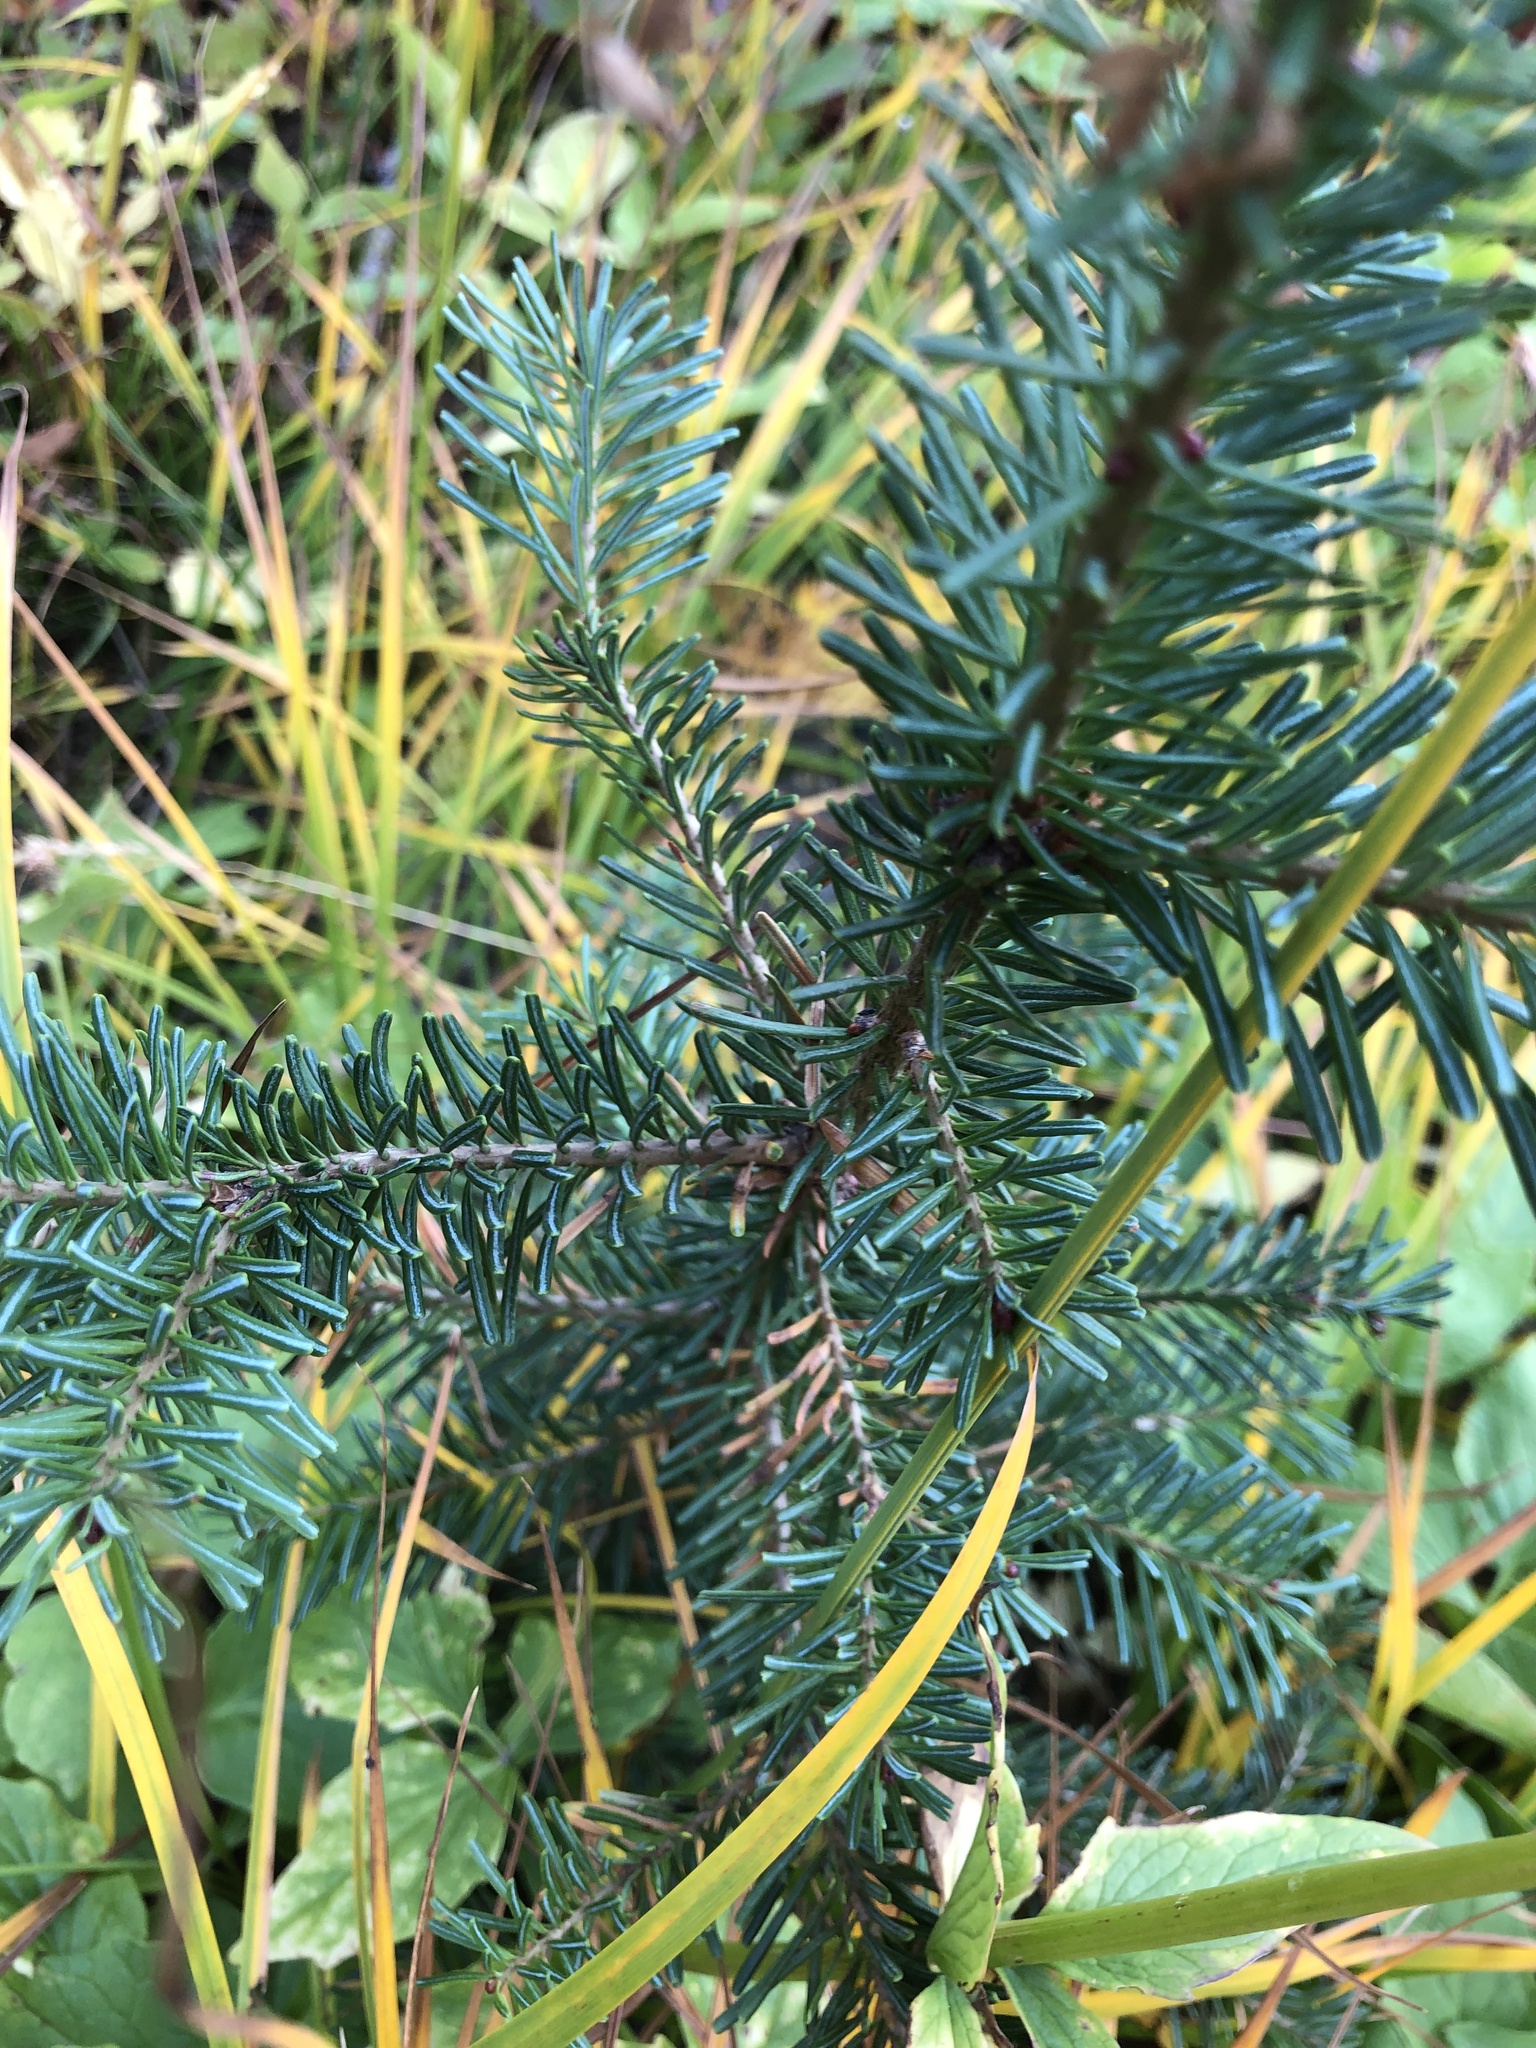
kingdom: Plantae
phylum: Tracheophyta
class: Pinopsida
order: Pinales
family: Pinaceae
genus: Abies
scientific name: Abies lasiocarpa
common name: Subalpine fir
